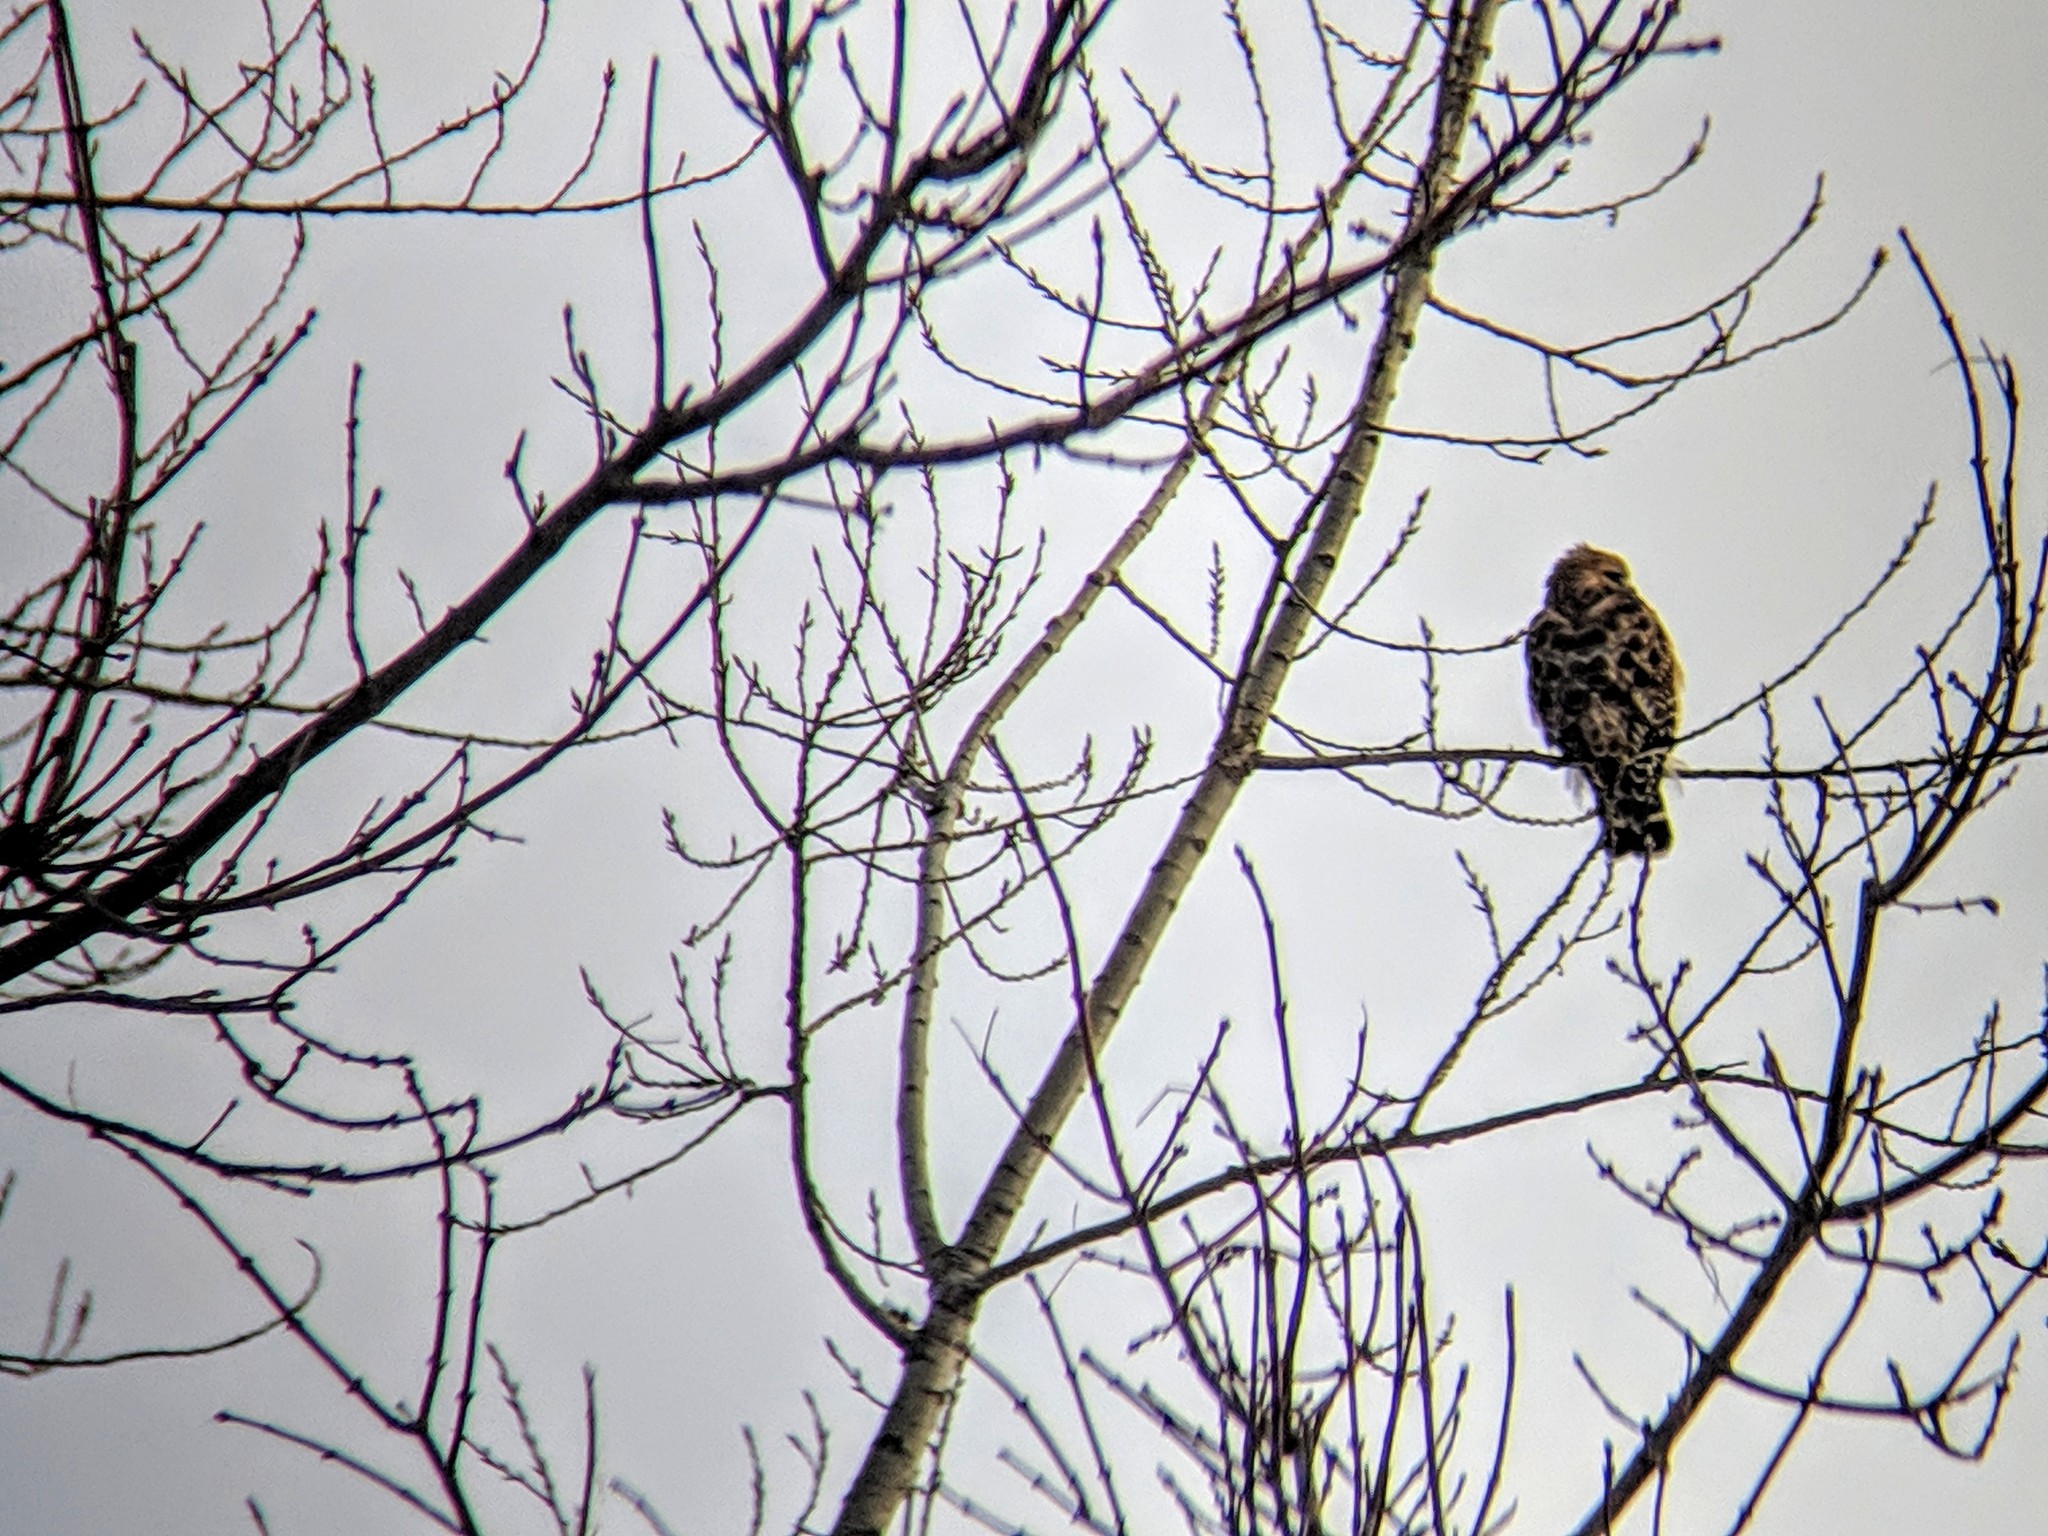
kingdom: Animalia
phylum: Chordata
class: Aves
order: Accipitriformes
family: Accipitridae
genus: Buteo
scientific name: Buteo lineatus
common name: Red-shouldered hawk
